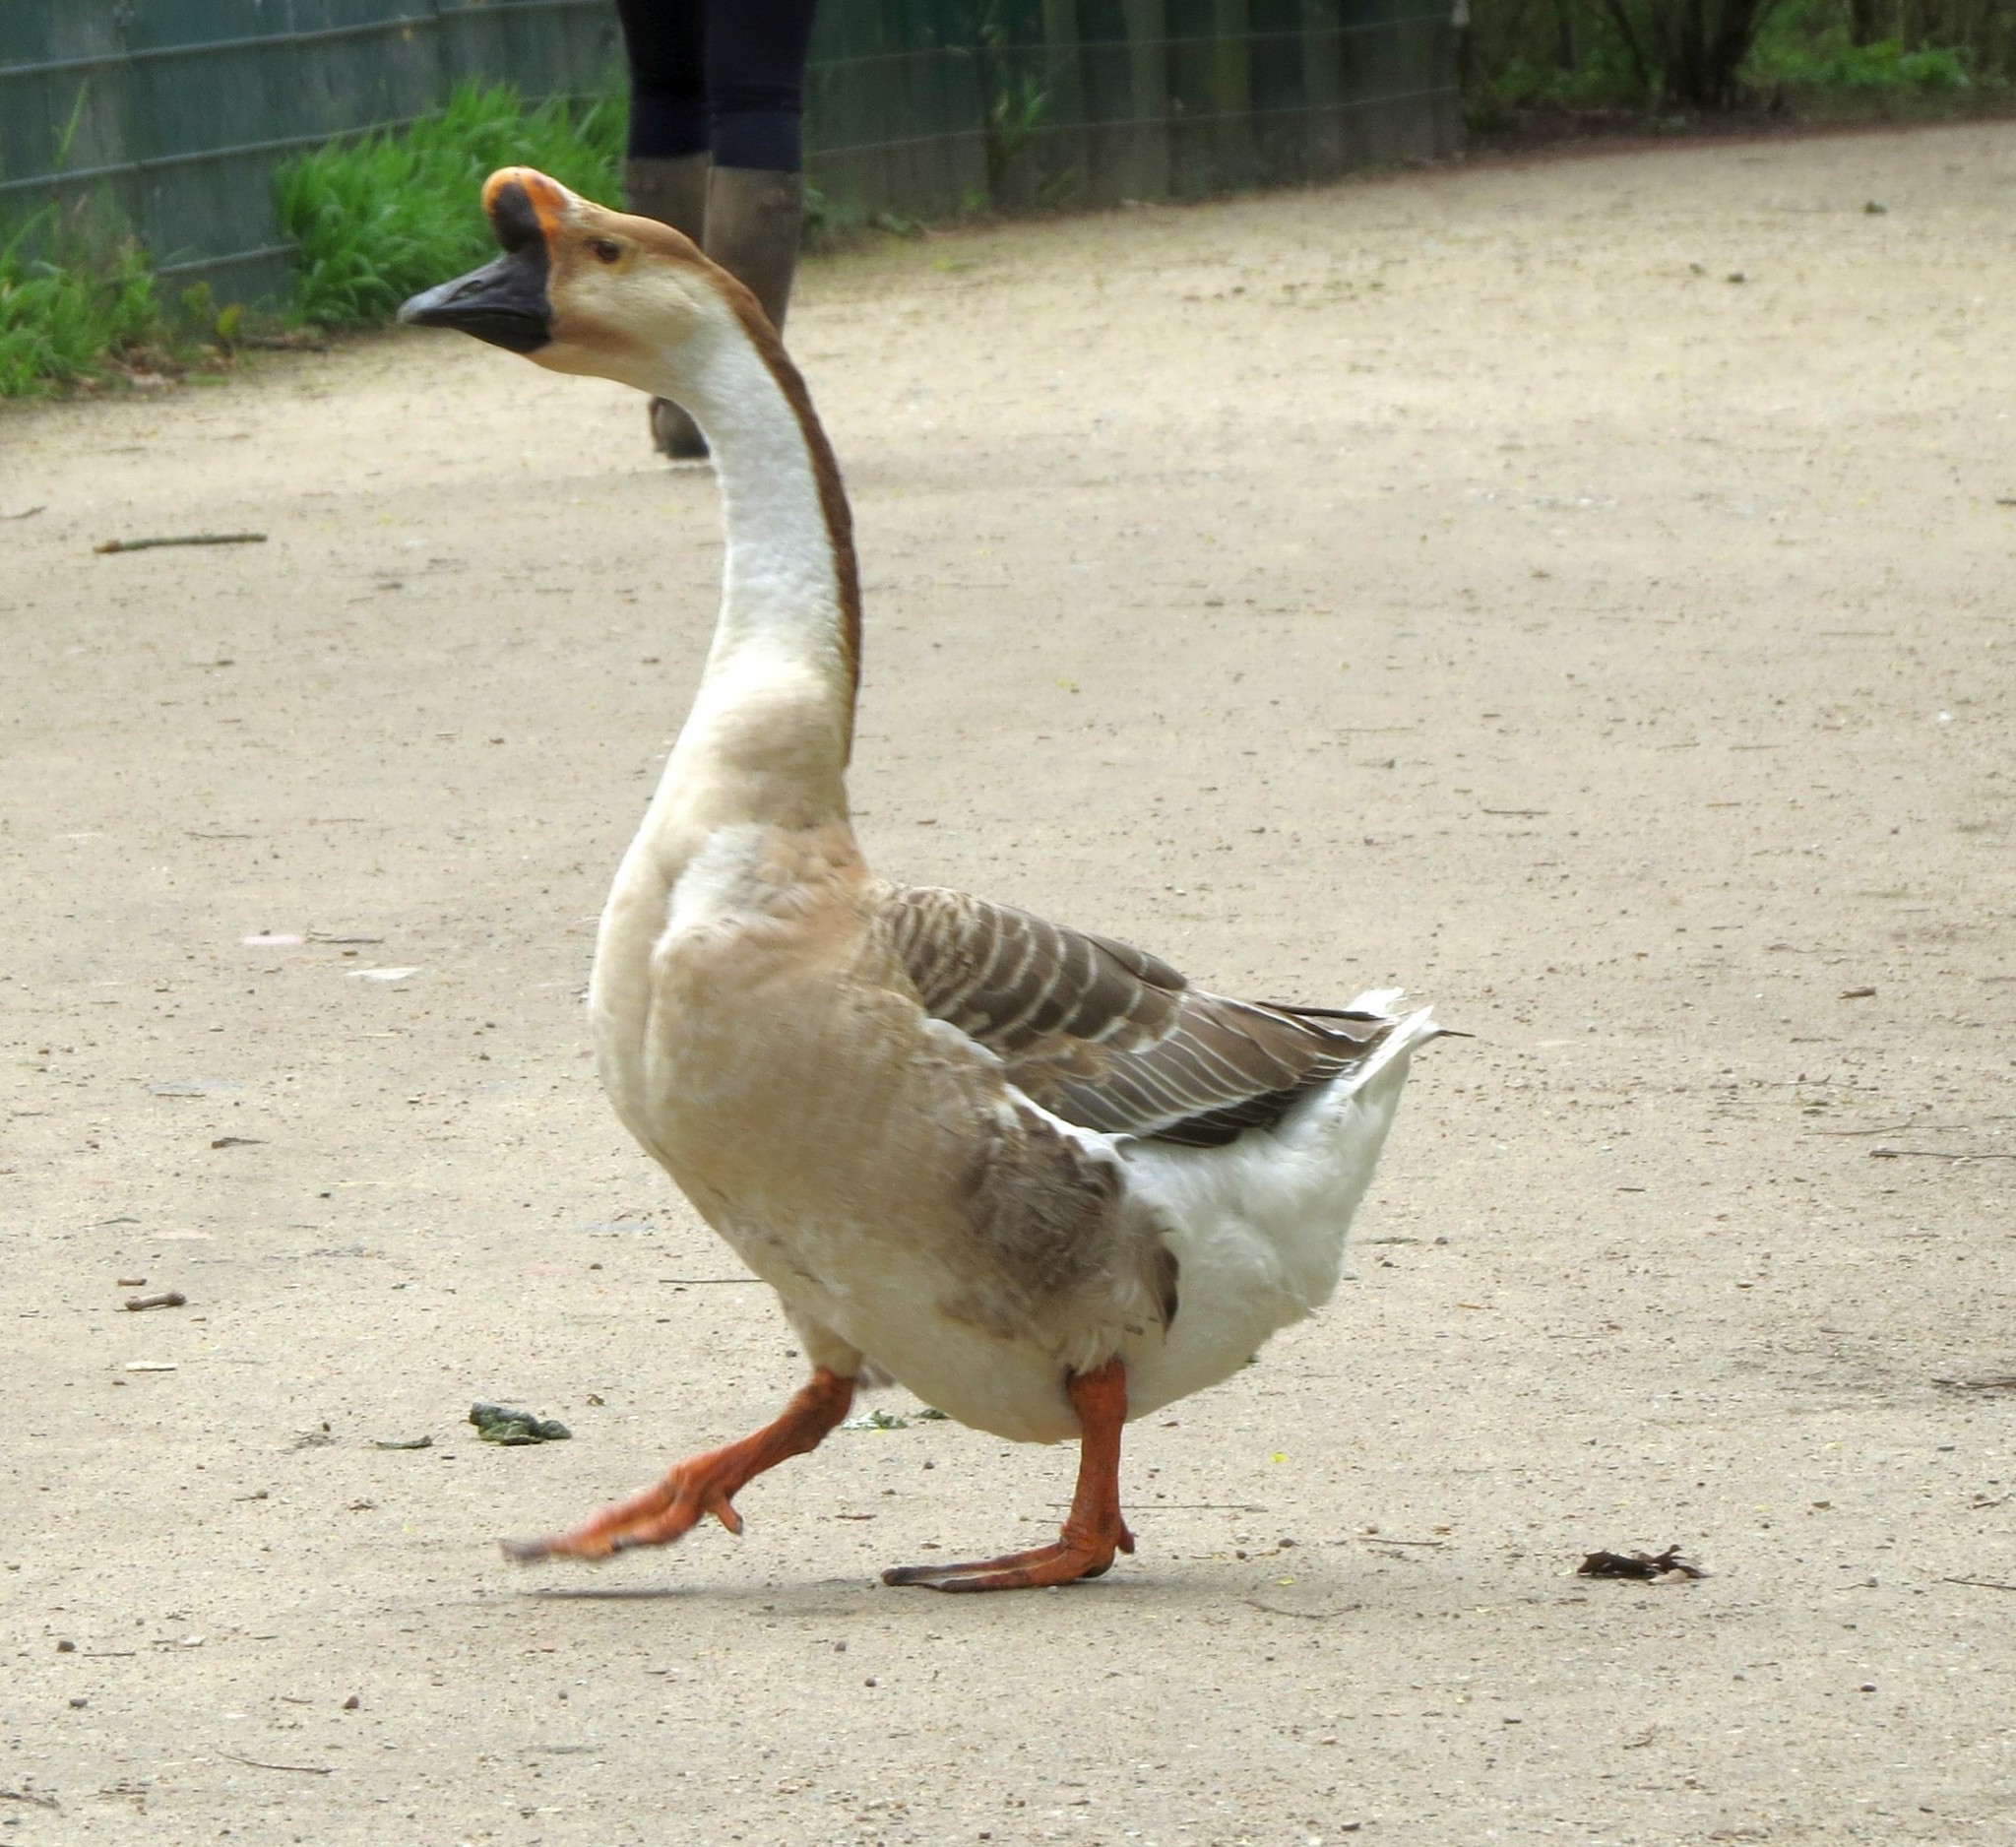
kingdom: Animalia
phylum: Chordata
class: Aves
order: Anseriformes
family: Anatidae
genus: Anser
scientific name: Anser cygnoides
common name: Swan goose
